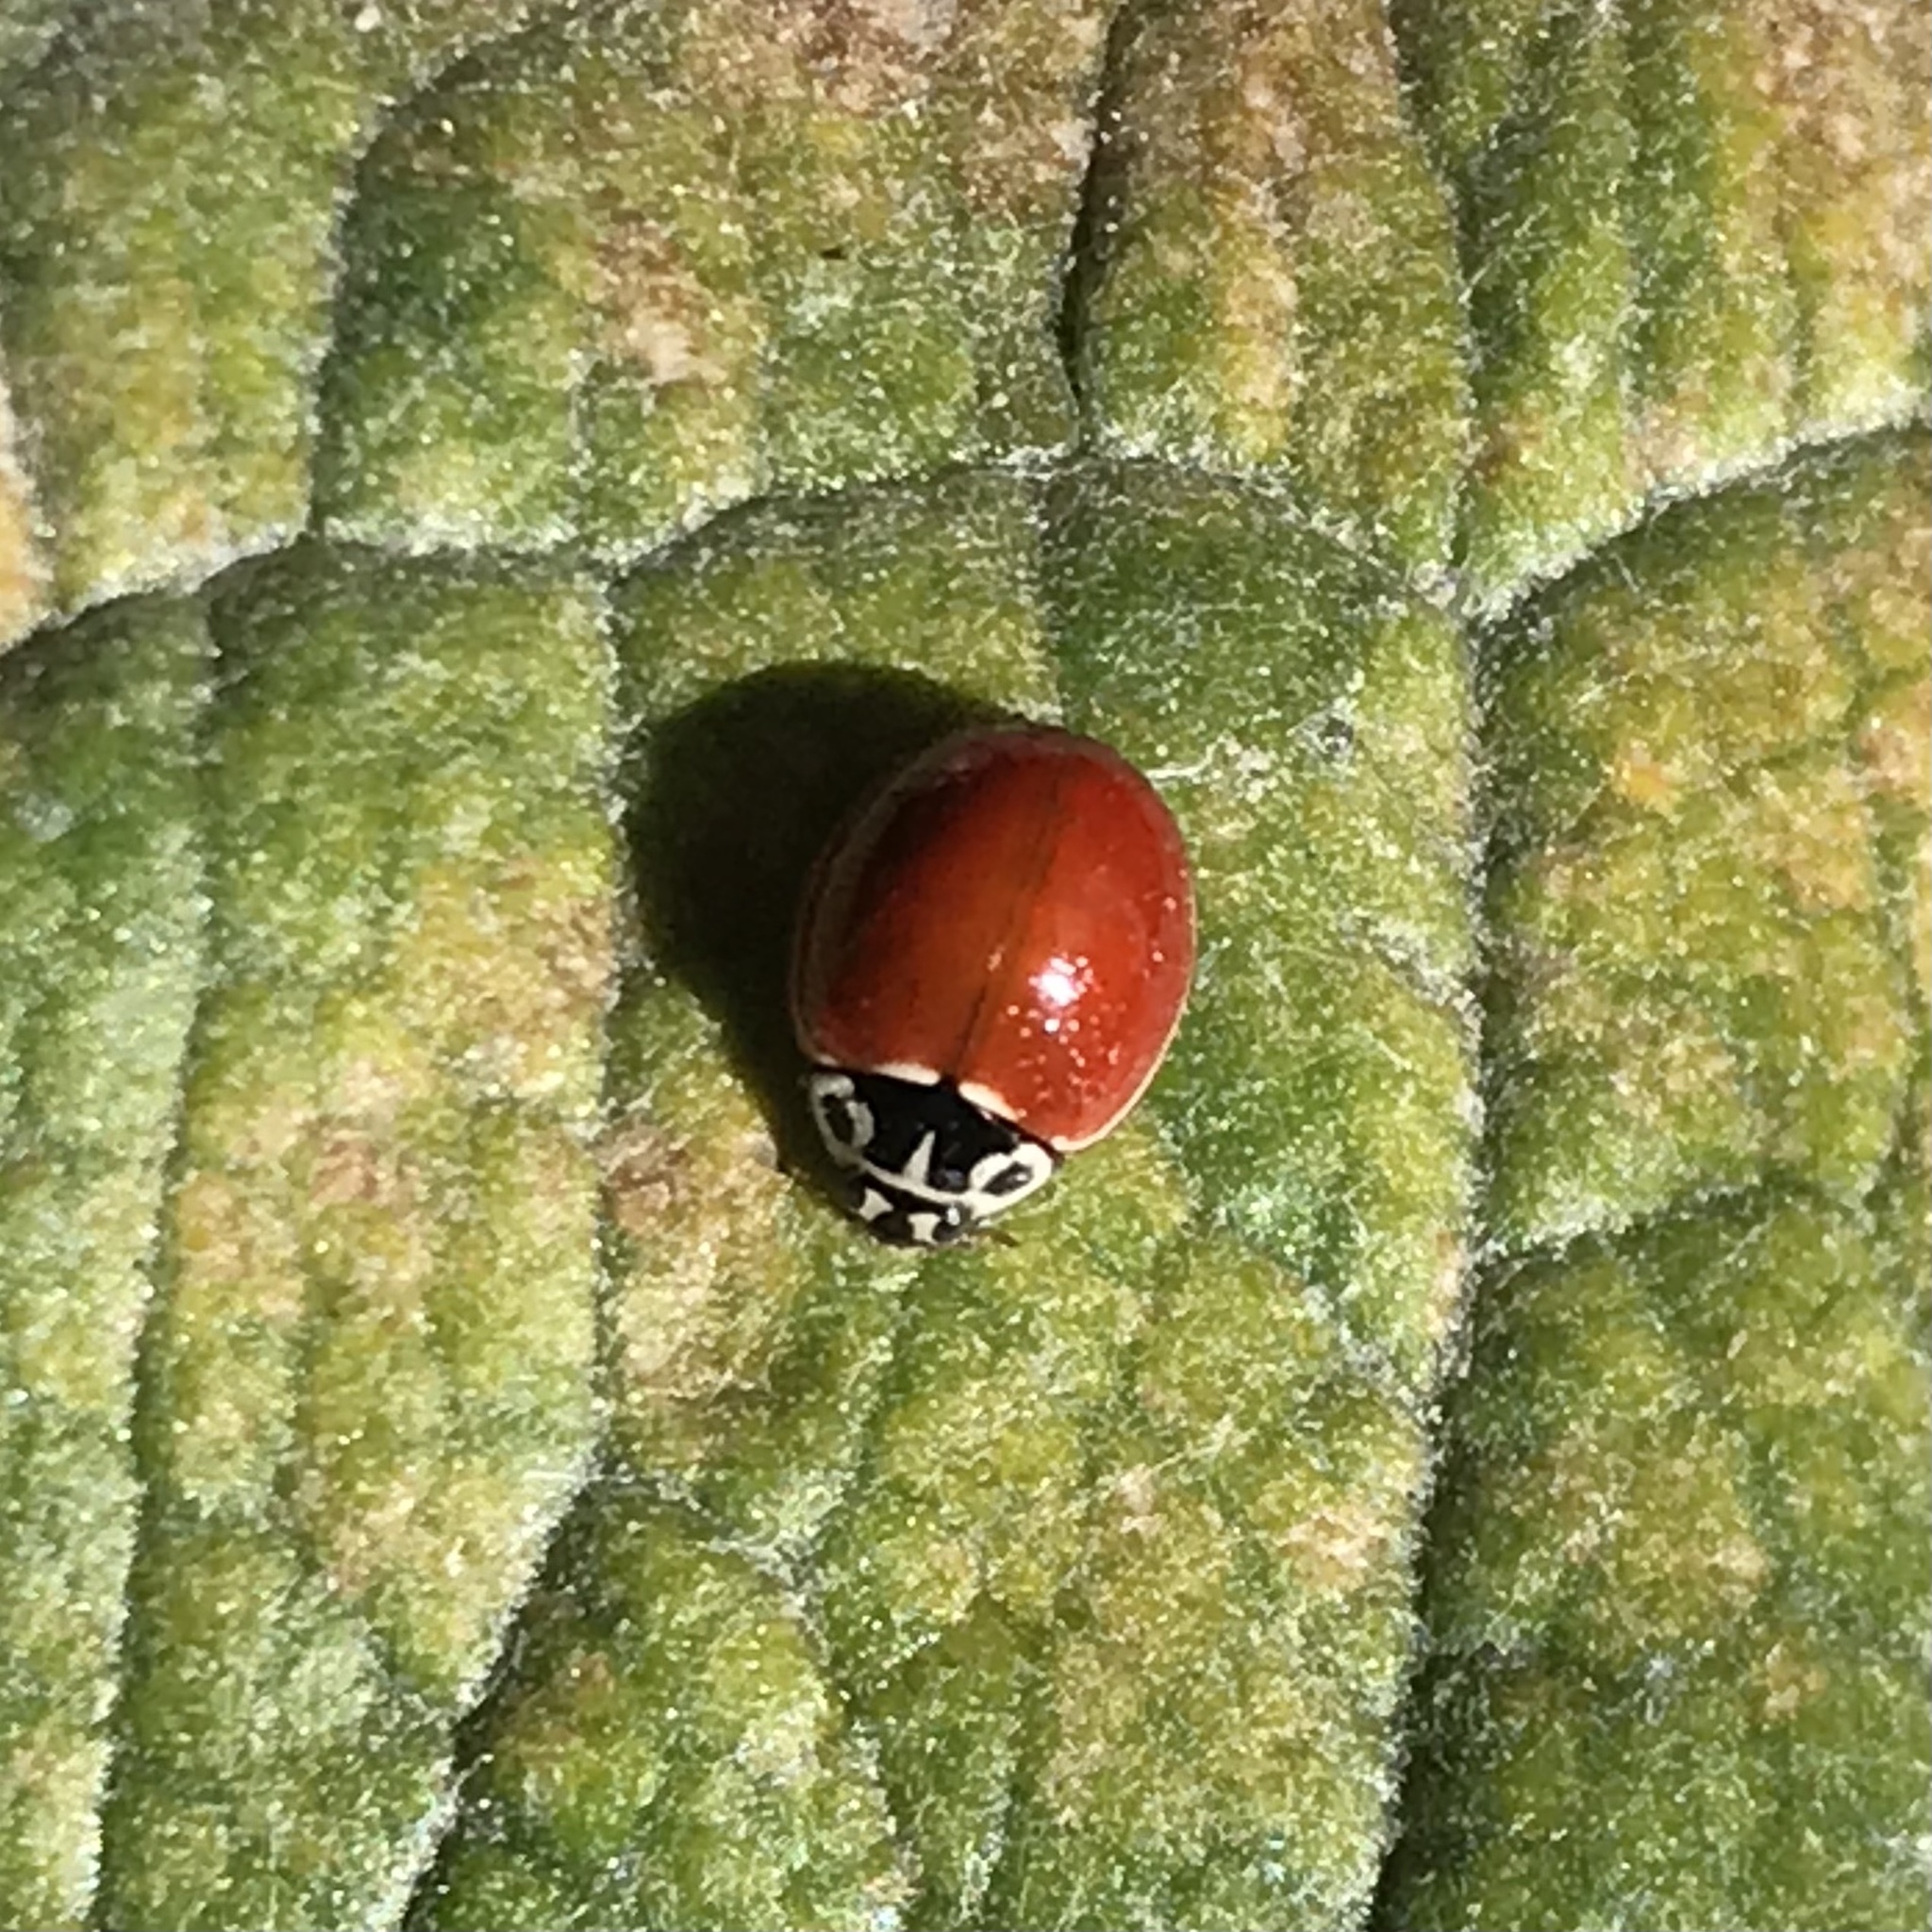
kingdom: Animalia
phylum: Arthropoda
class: Insecta
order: Coleoptera
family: Coccinellidae
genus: Cycloneda
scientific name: Cycloneda polita
